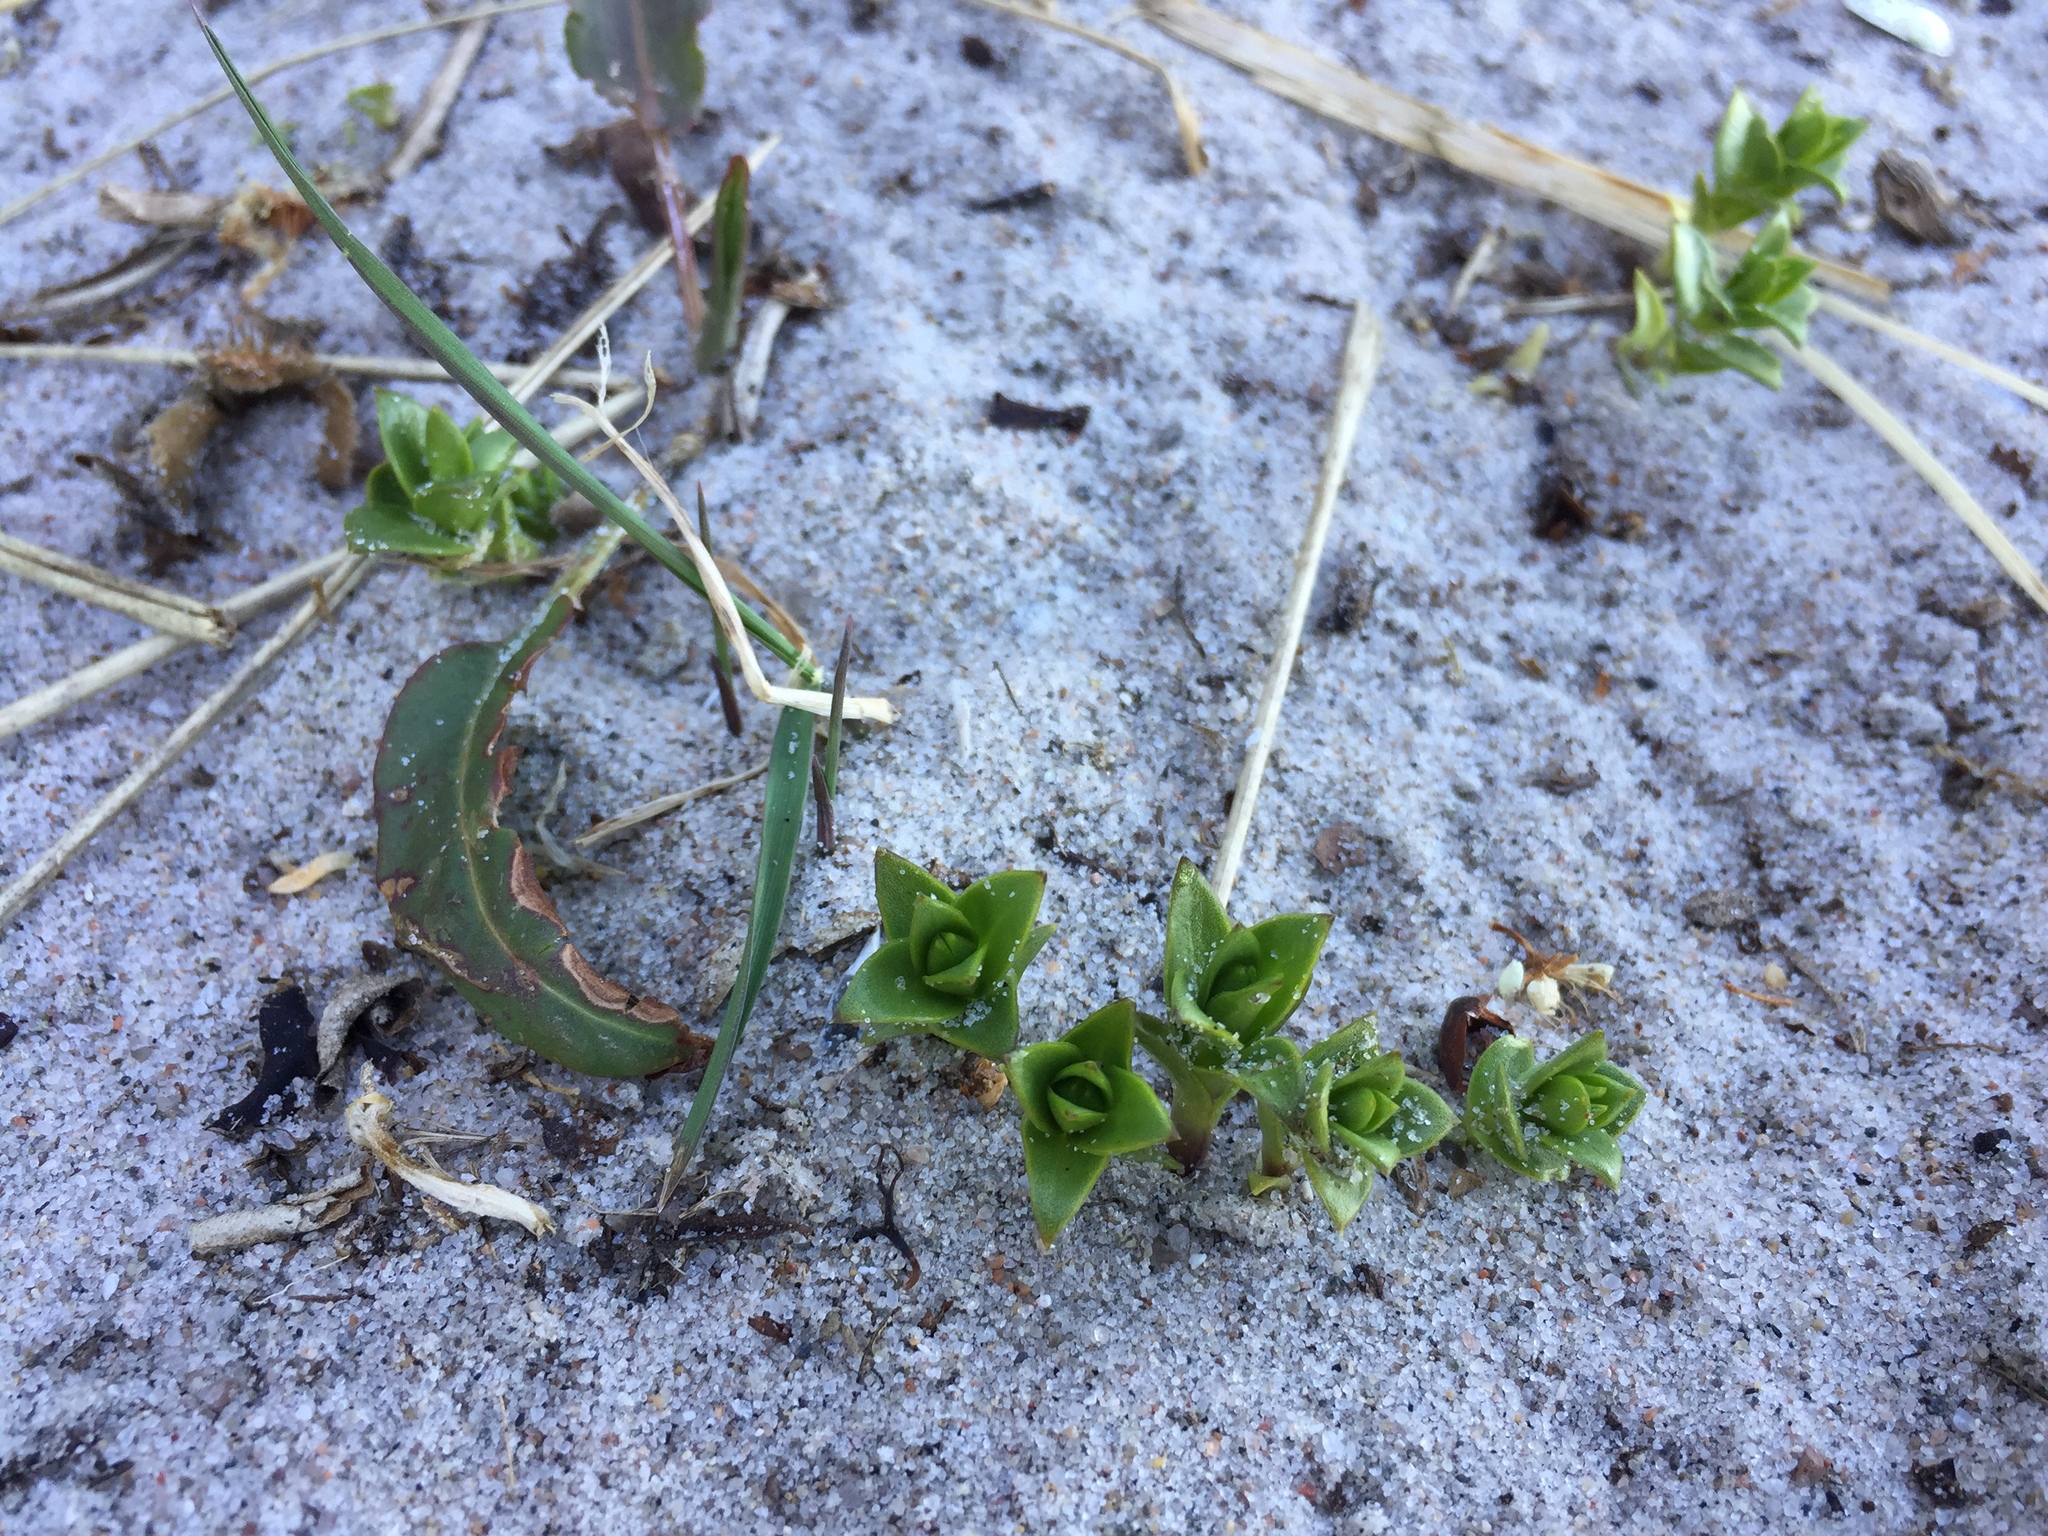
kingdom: Plantae
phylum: Tracheophyta
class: Magnoliopsida
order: Caryophyllales
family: Caryophyllaceae
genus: Honckenya
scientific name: Honckenya peploides
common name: Sea sandwort
